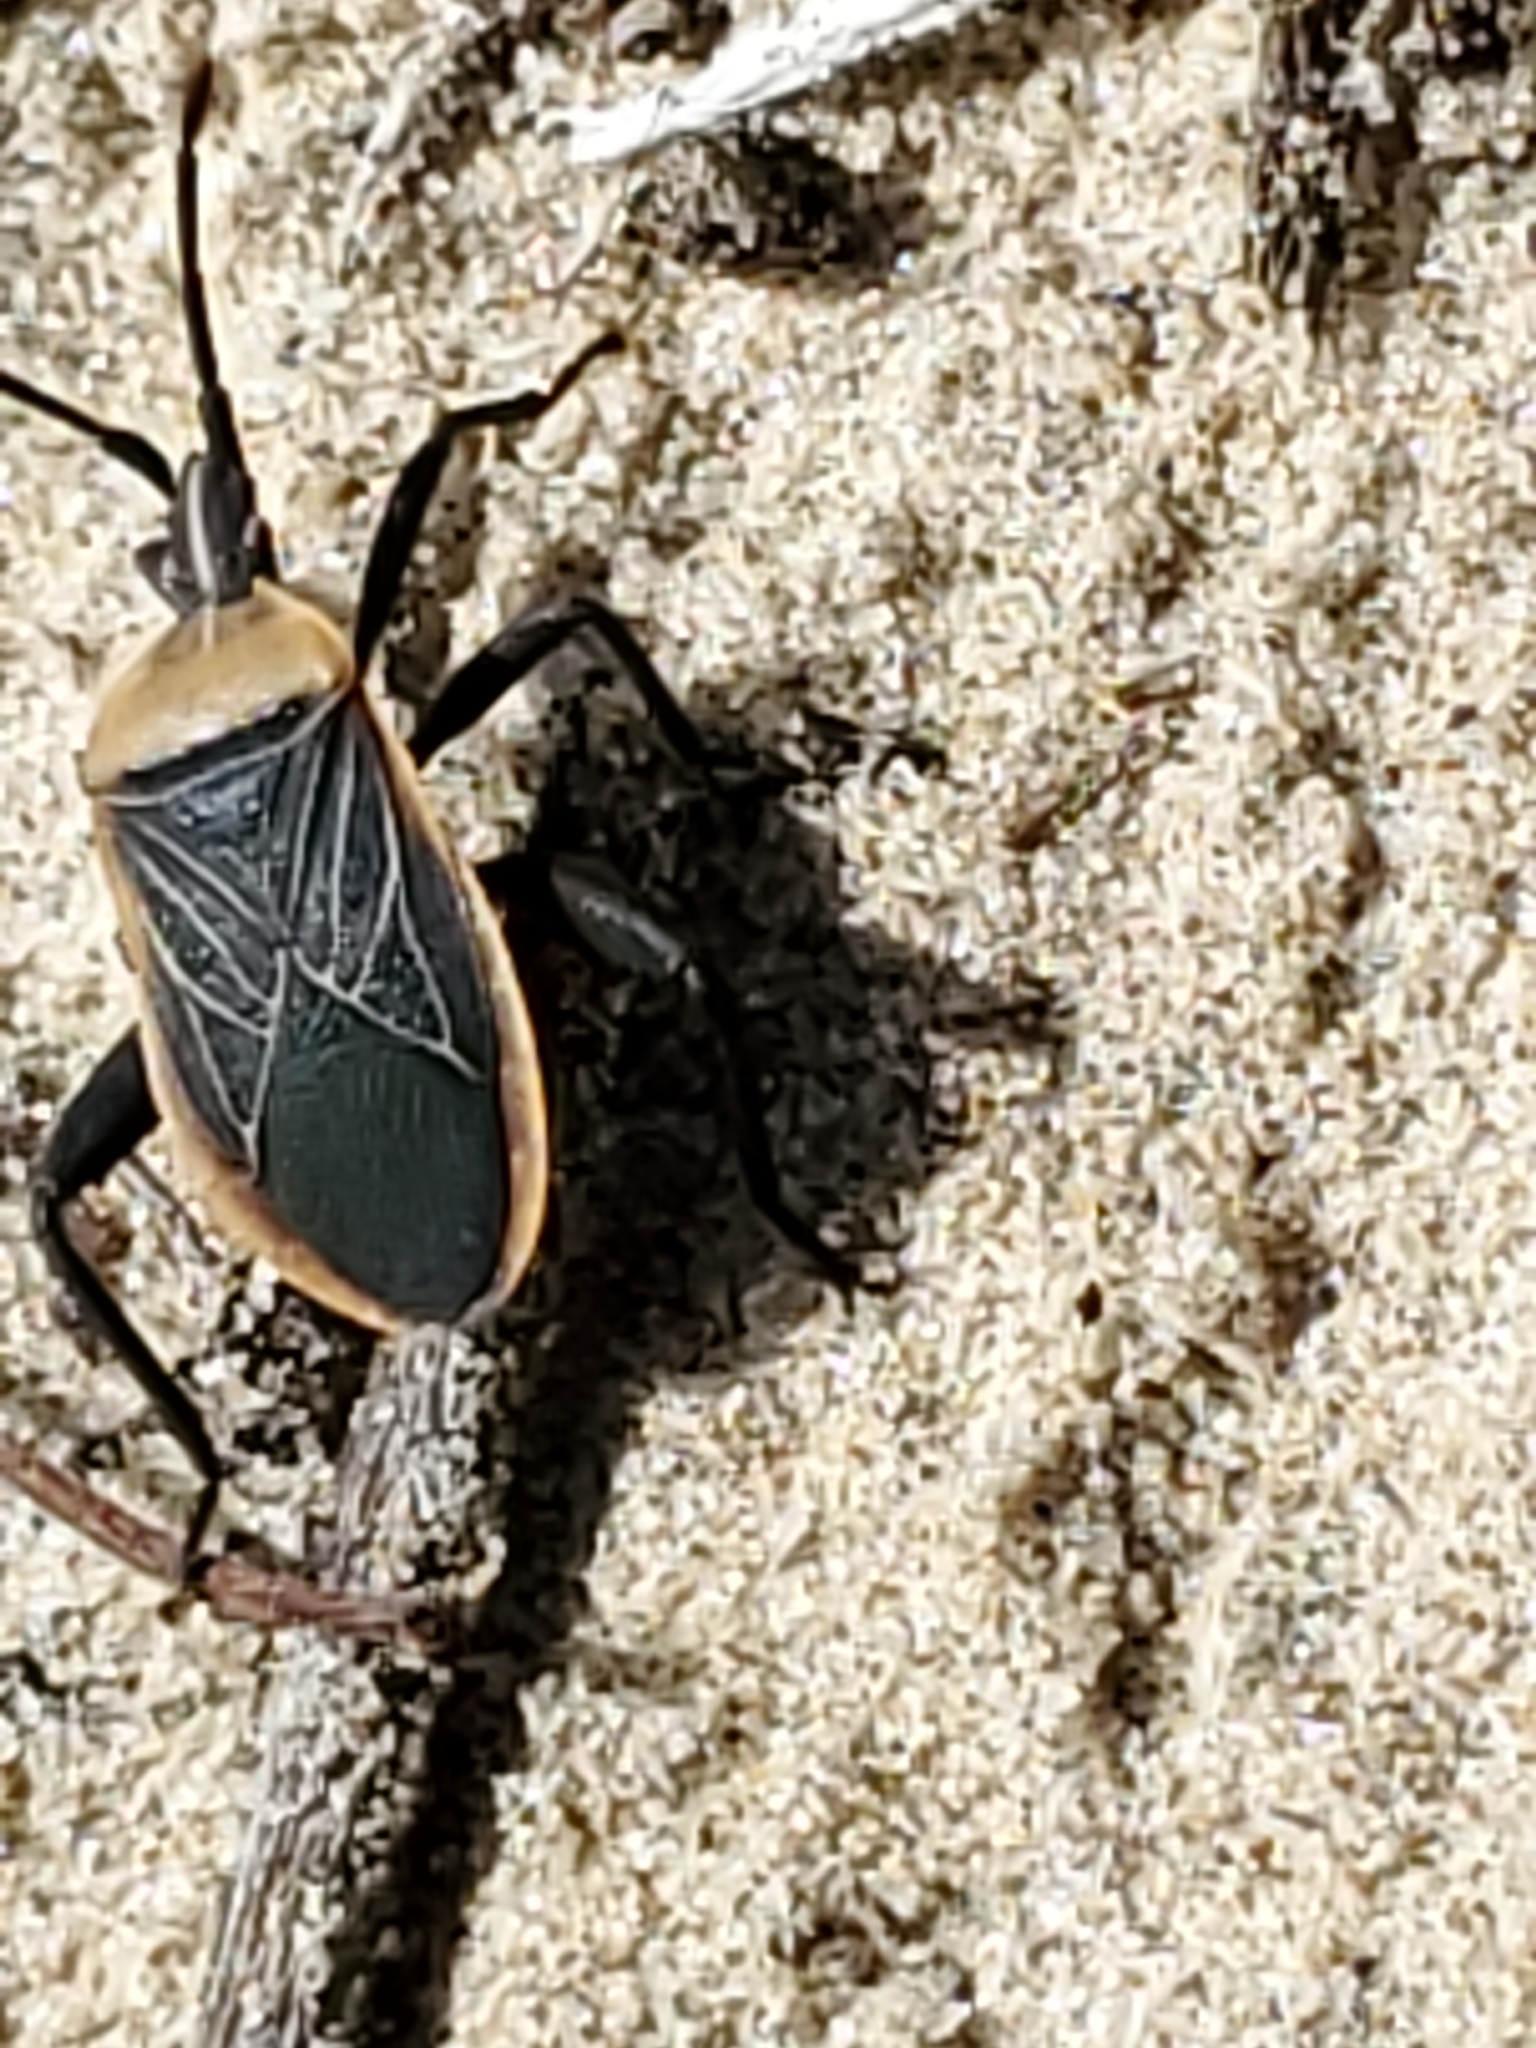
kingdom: Animalia
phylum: Arthropoda
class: Insecta
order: Hemiptera
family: Coreidae
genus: Chelinidea
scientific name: Chelinidea vittiger
